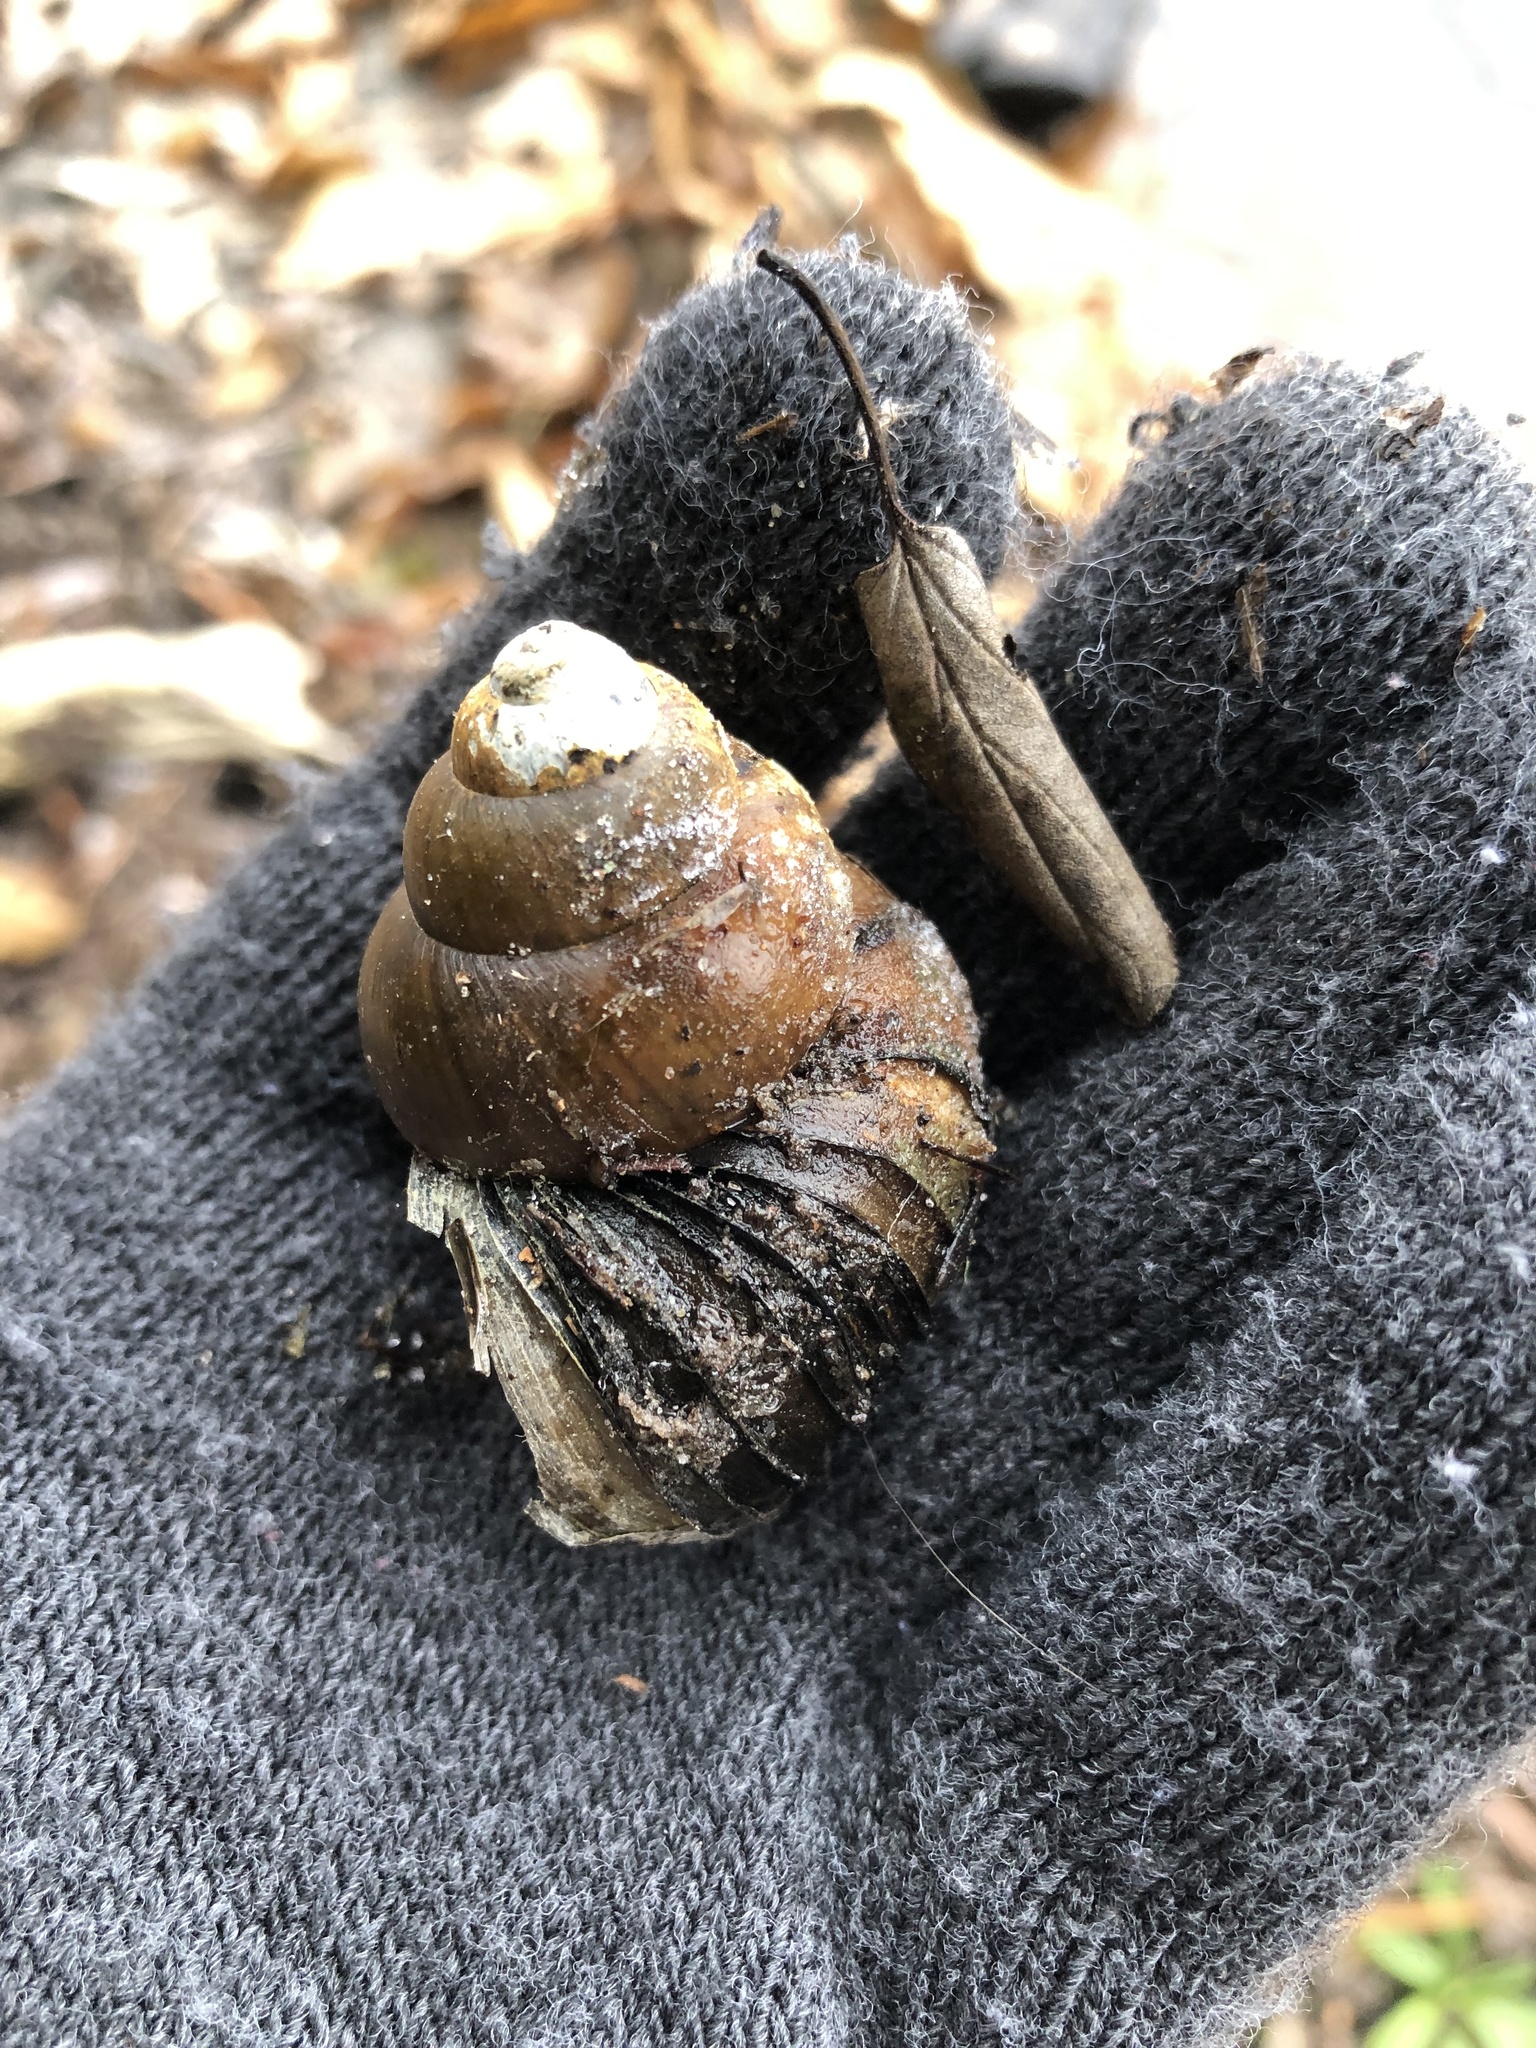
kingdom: Animalia
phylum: Mollusca
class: Gastropoda
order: Architaenioglossa
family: Viviparidae
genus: Cipangopaludina
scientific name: Cipangopaludina chinensis
